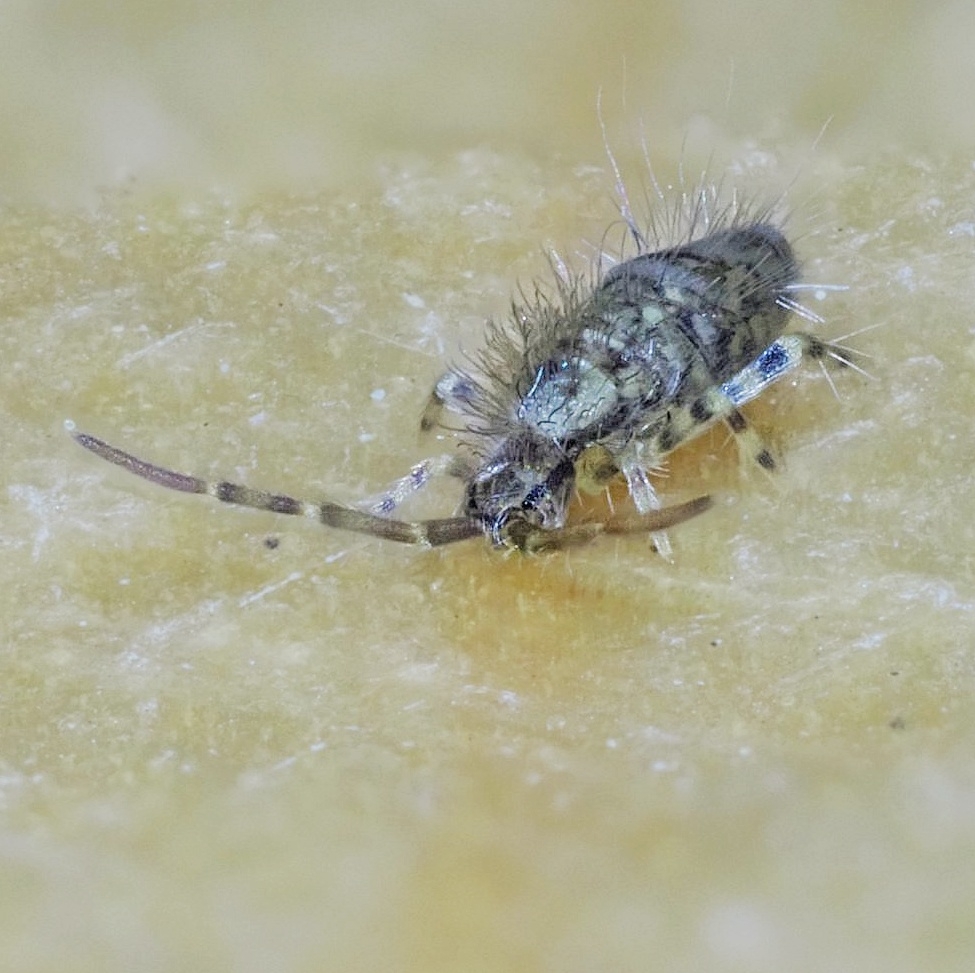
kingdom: Animalia
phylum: Arthropoda
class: Collembola
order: Entomobryomorpha
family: Entomobryidae
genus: Entomobrya
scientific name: Entomobrya dorsalis
